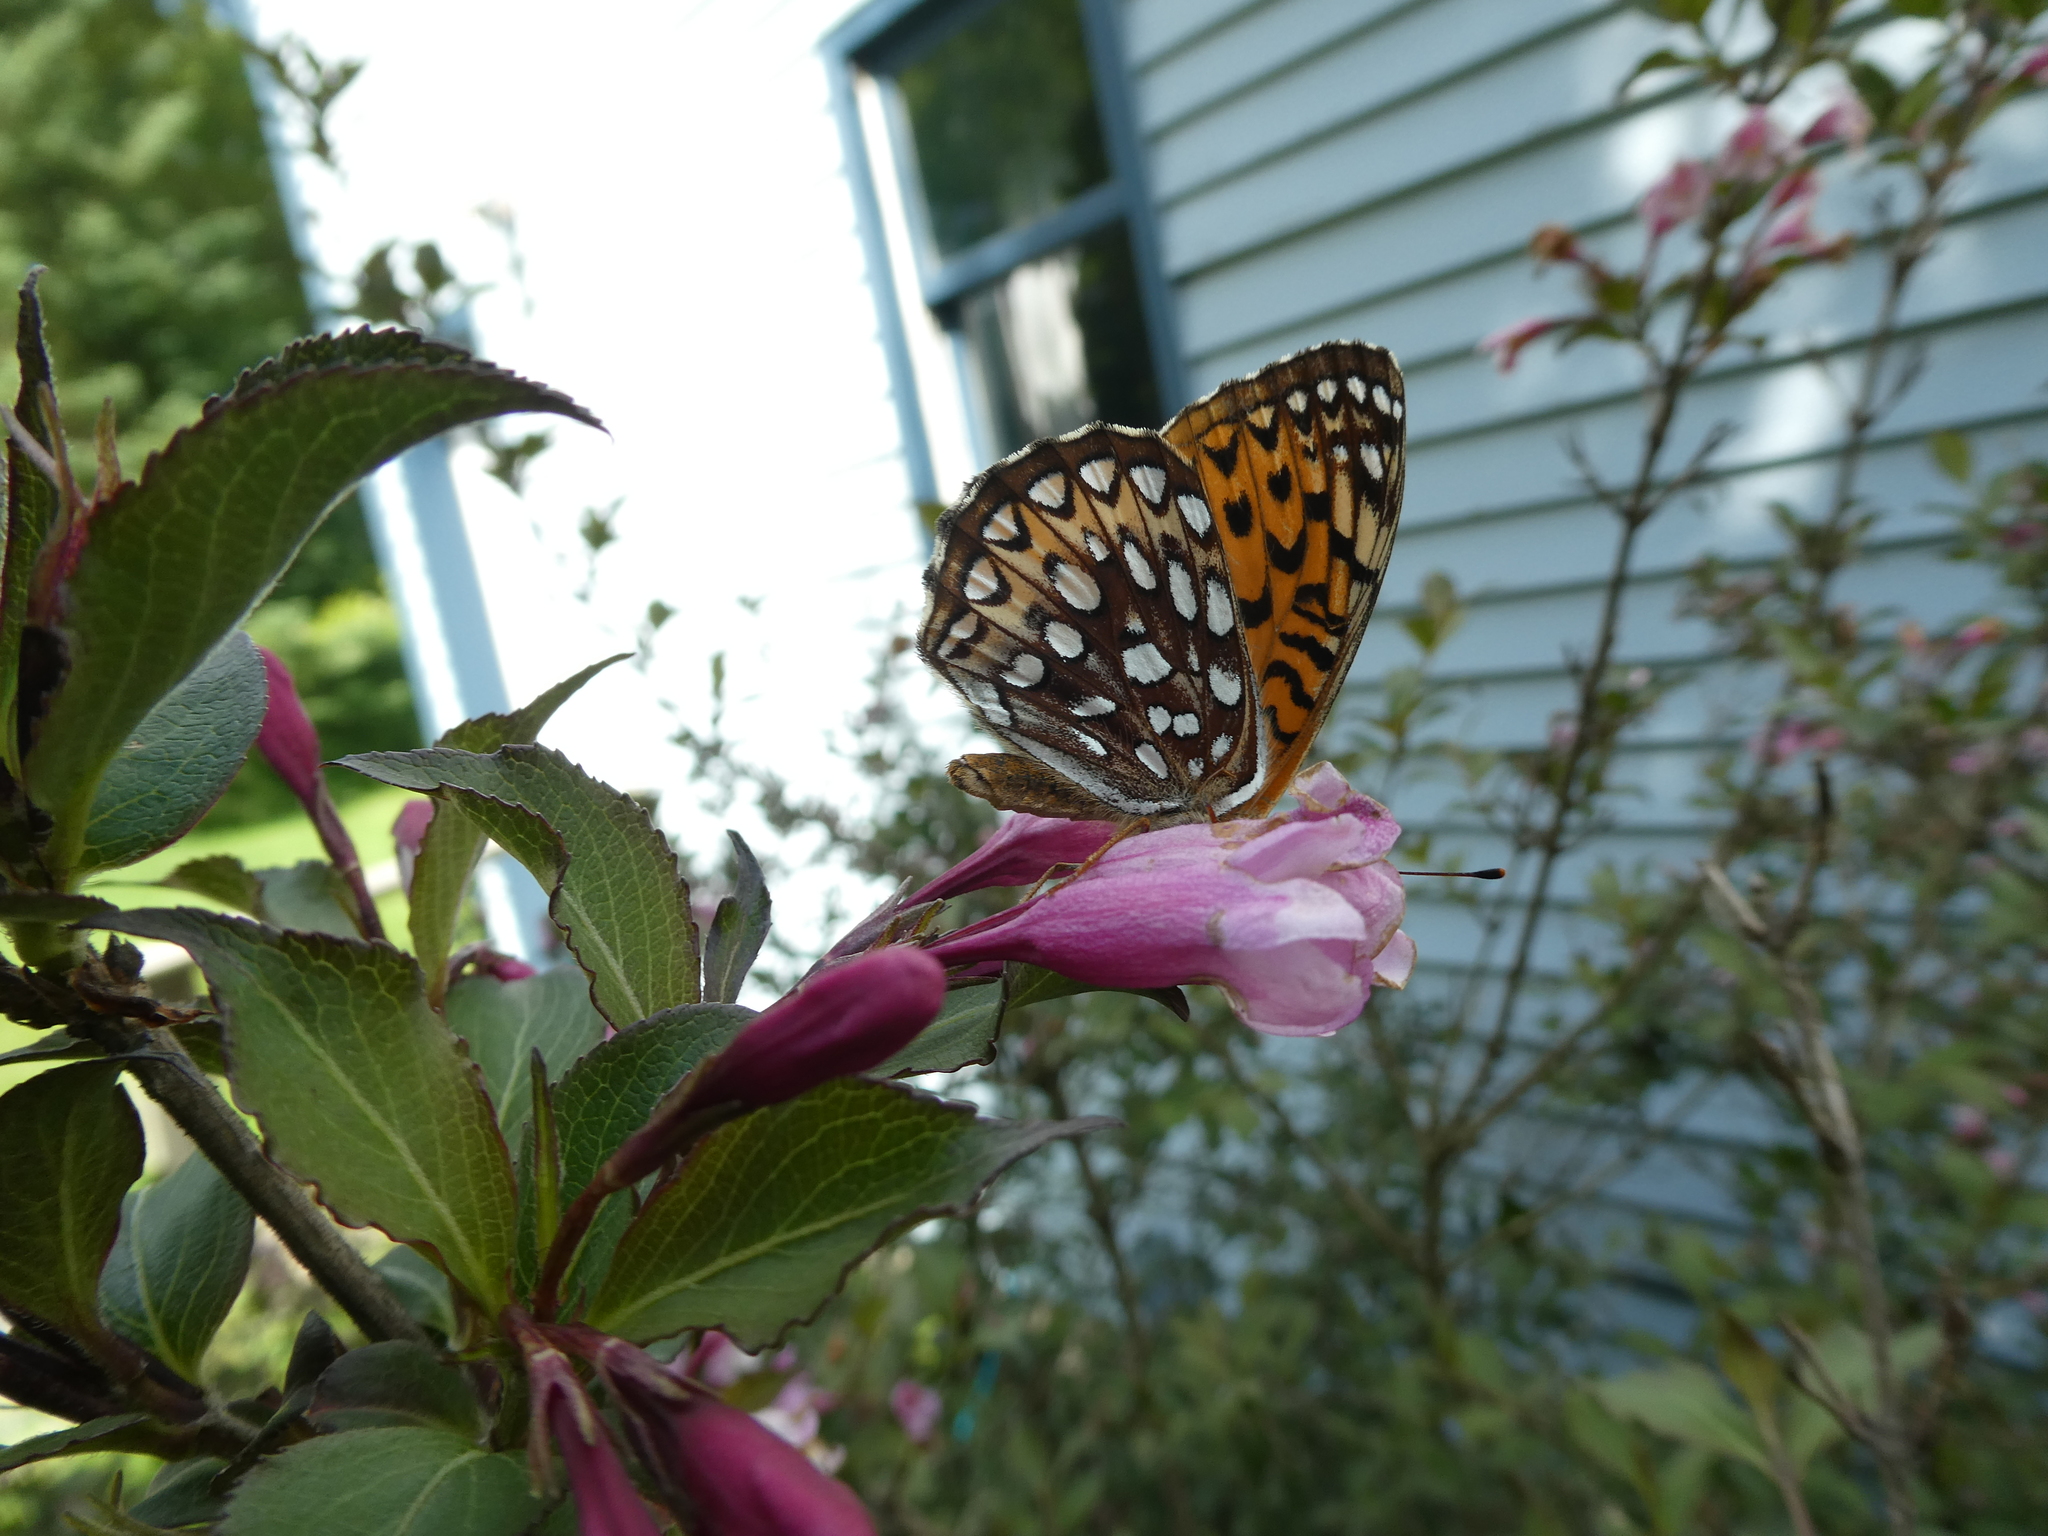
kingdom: Animalia
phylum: Arthropoda
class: Insecta
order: Lepidoptera
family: Nymphalidae
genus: Speyeria
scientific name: Speyeria atlantis
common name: Atlantis fritillary
